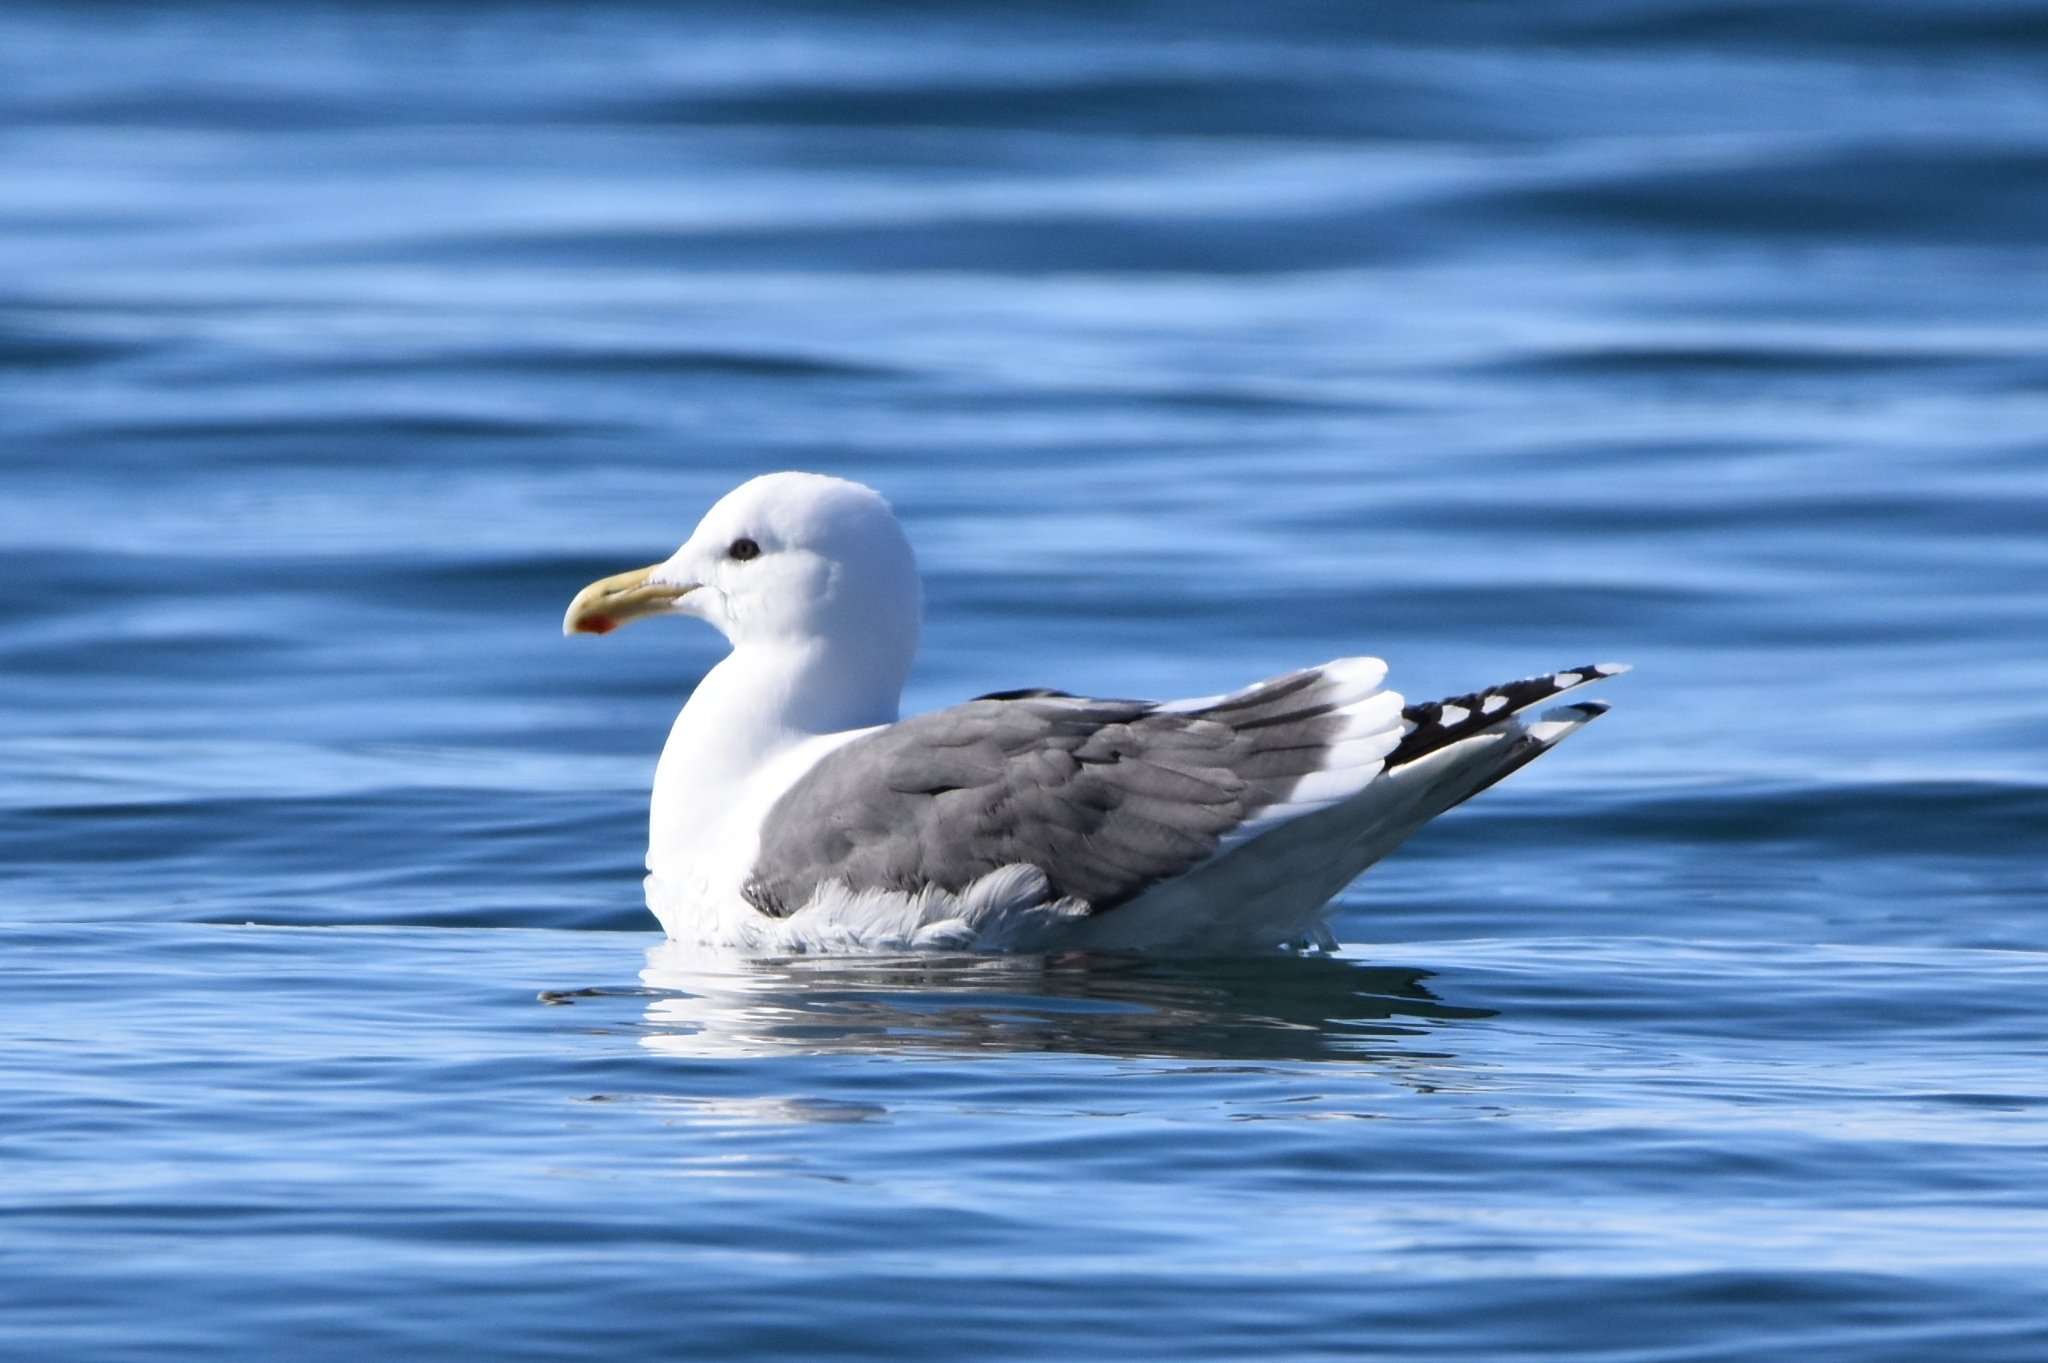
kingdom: Animalia
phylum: Chordata
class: Aves
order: Charadriiformes
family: Laridae
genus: Larus
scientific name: Larus schistisagus
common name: Slaty-backed gull
